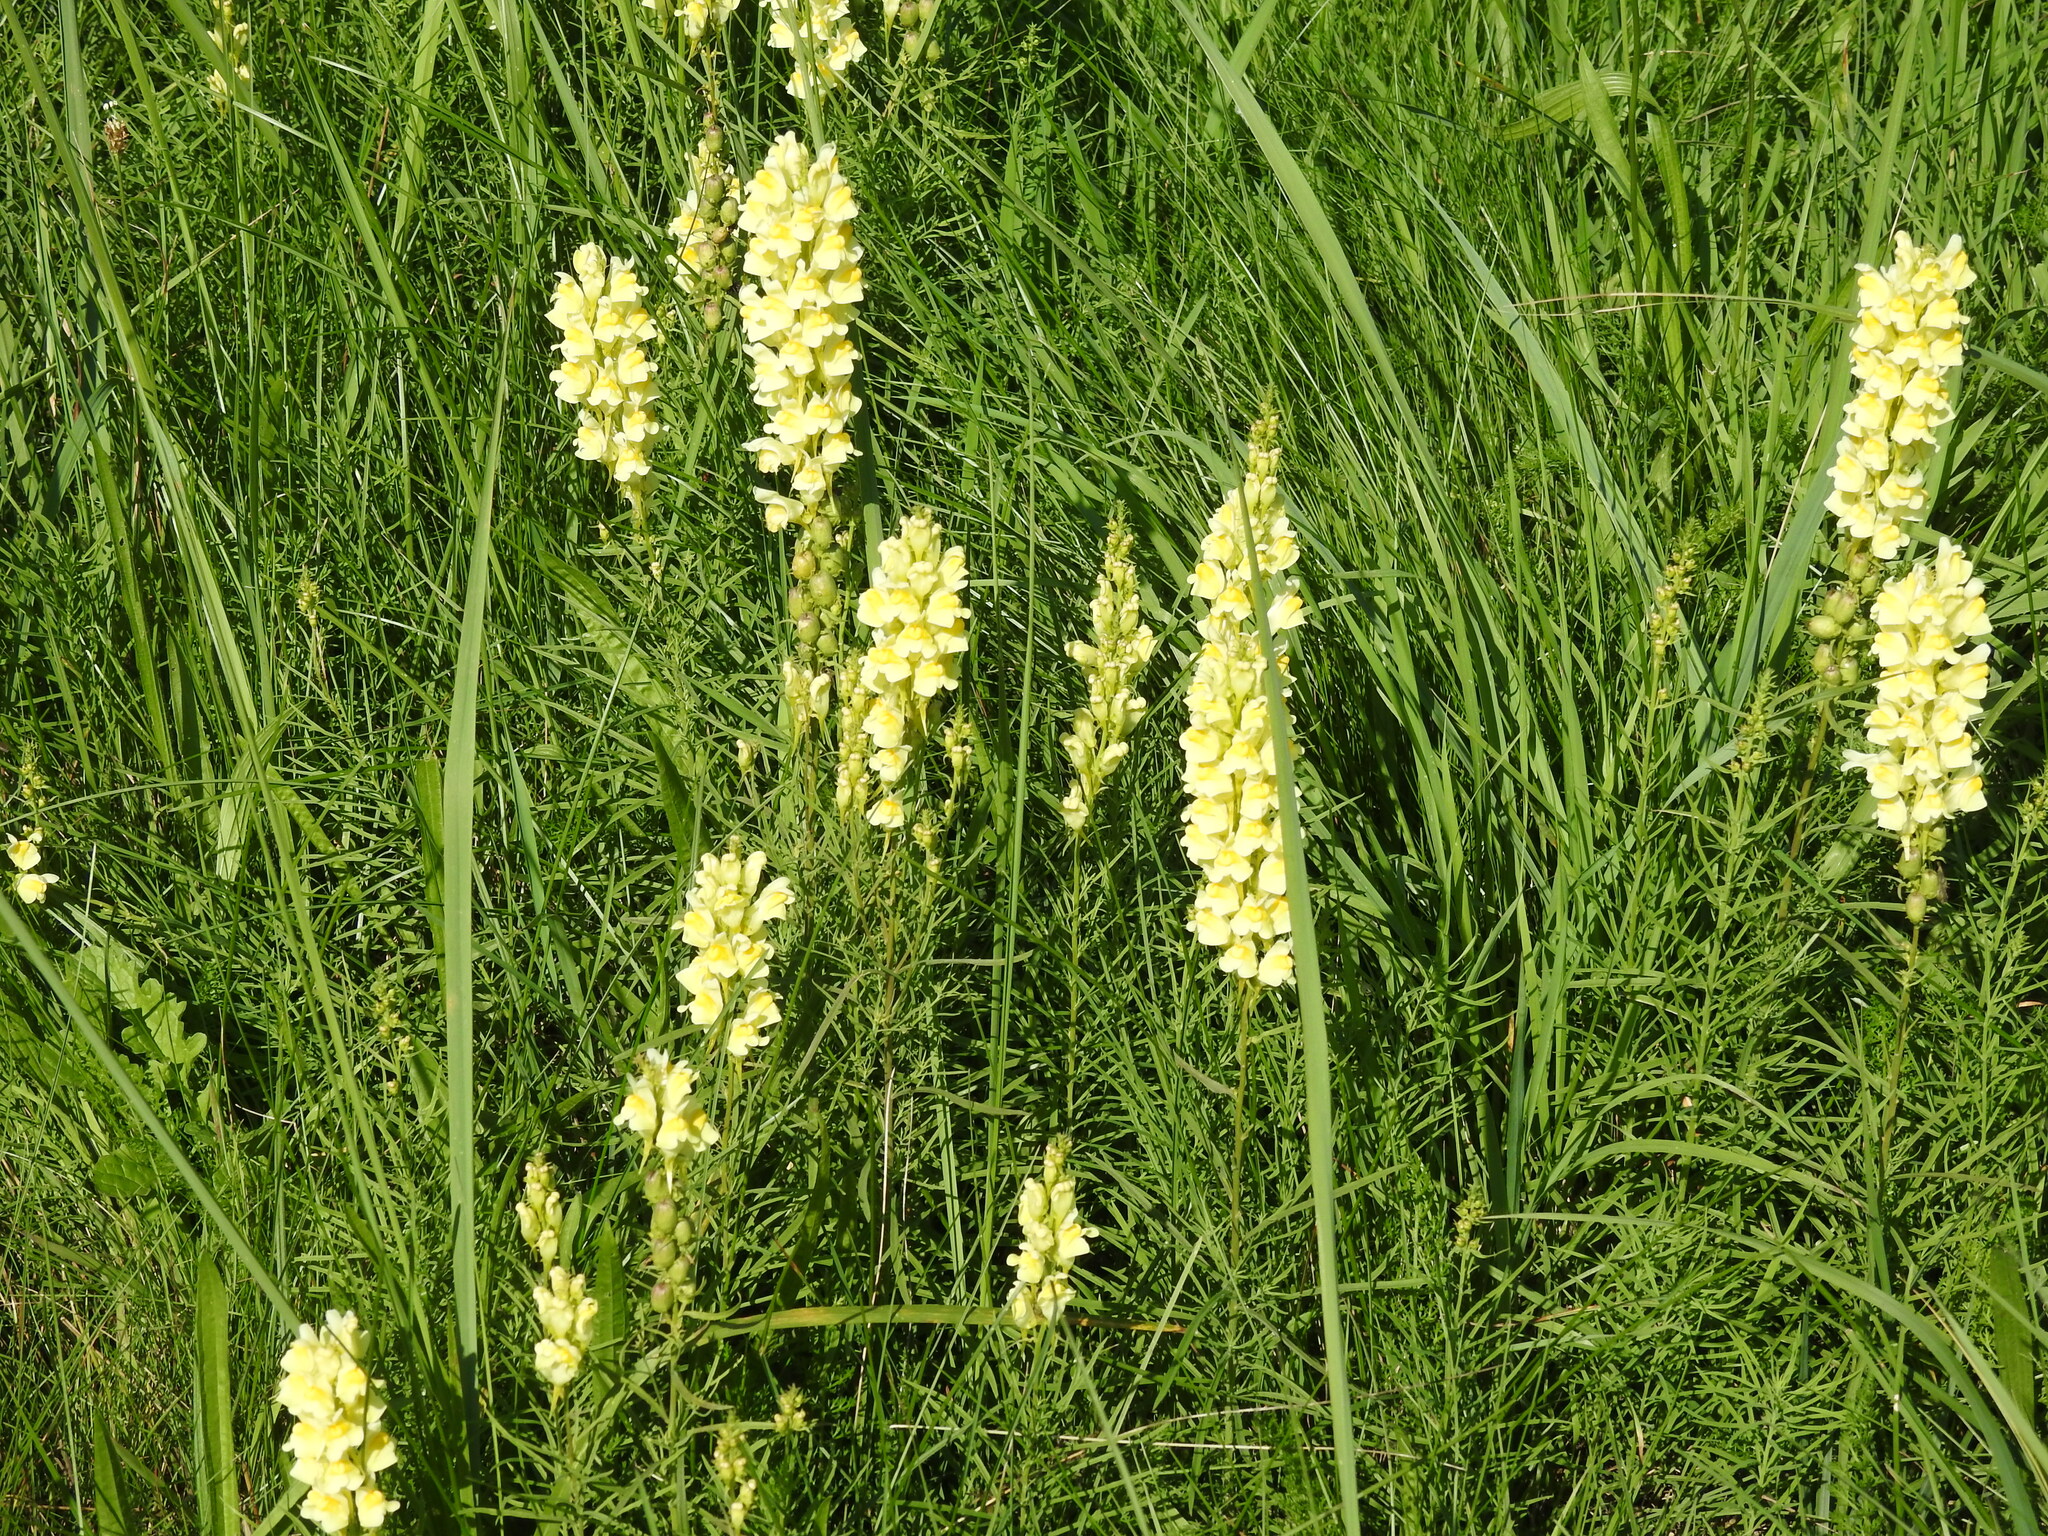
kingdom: Plantae
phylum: Tracheophyta
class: Magnoliopsida
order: Lamiales
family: Plantaginaceae
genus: Linaria
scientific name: Linaria vulgaris
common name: Butter and eggs
